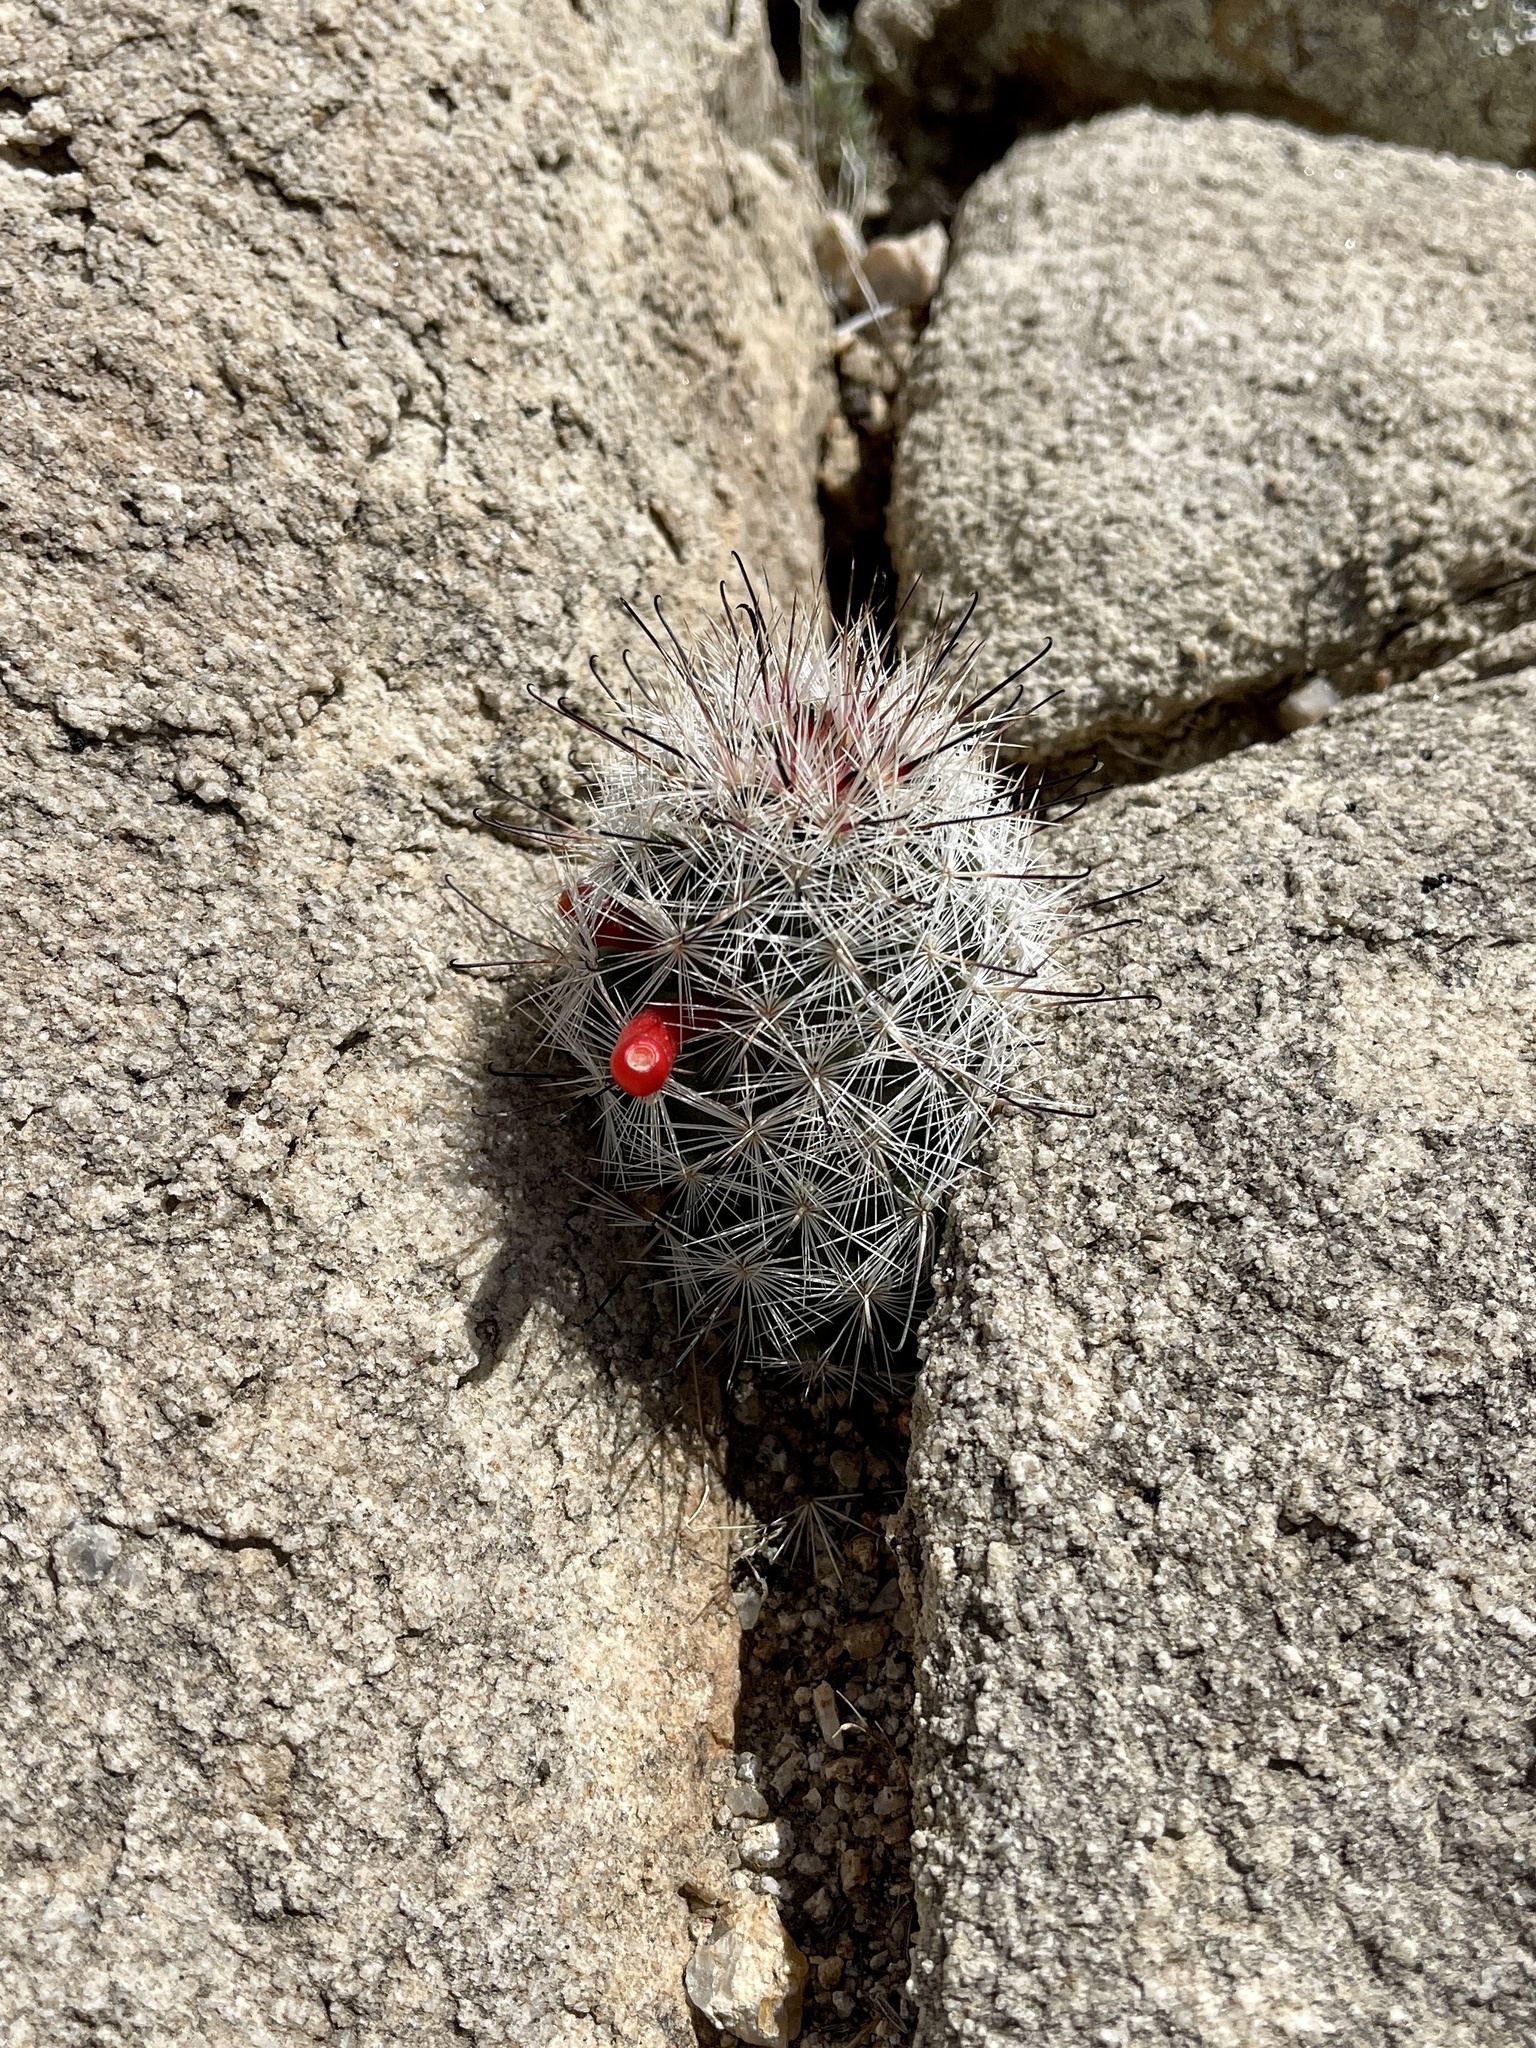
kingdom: Plantae
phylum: Tracheophyta
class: Magnoliopsida
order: Caryophyllales
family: Cactaceae
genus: Cochemiea
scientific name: Cochemiea tetrancistra
